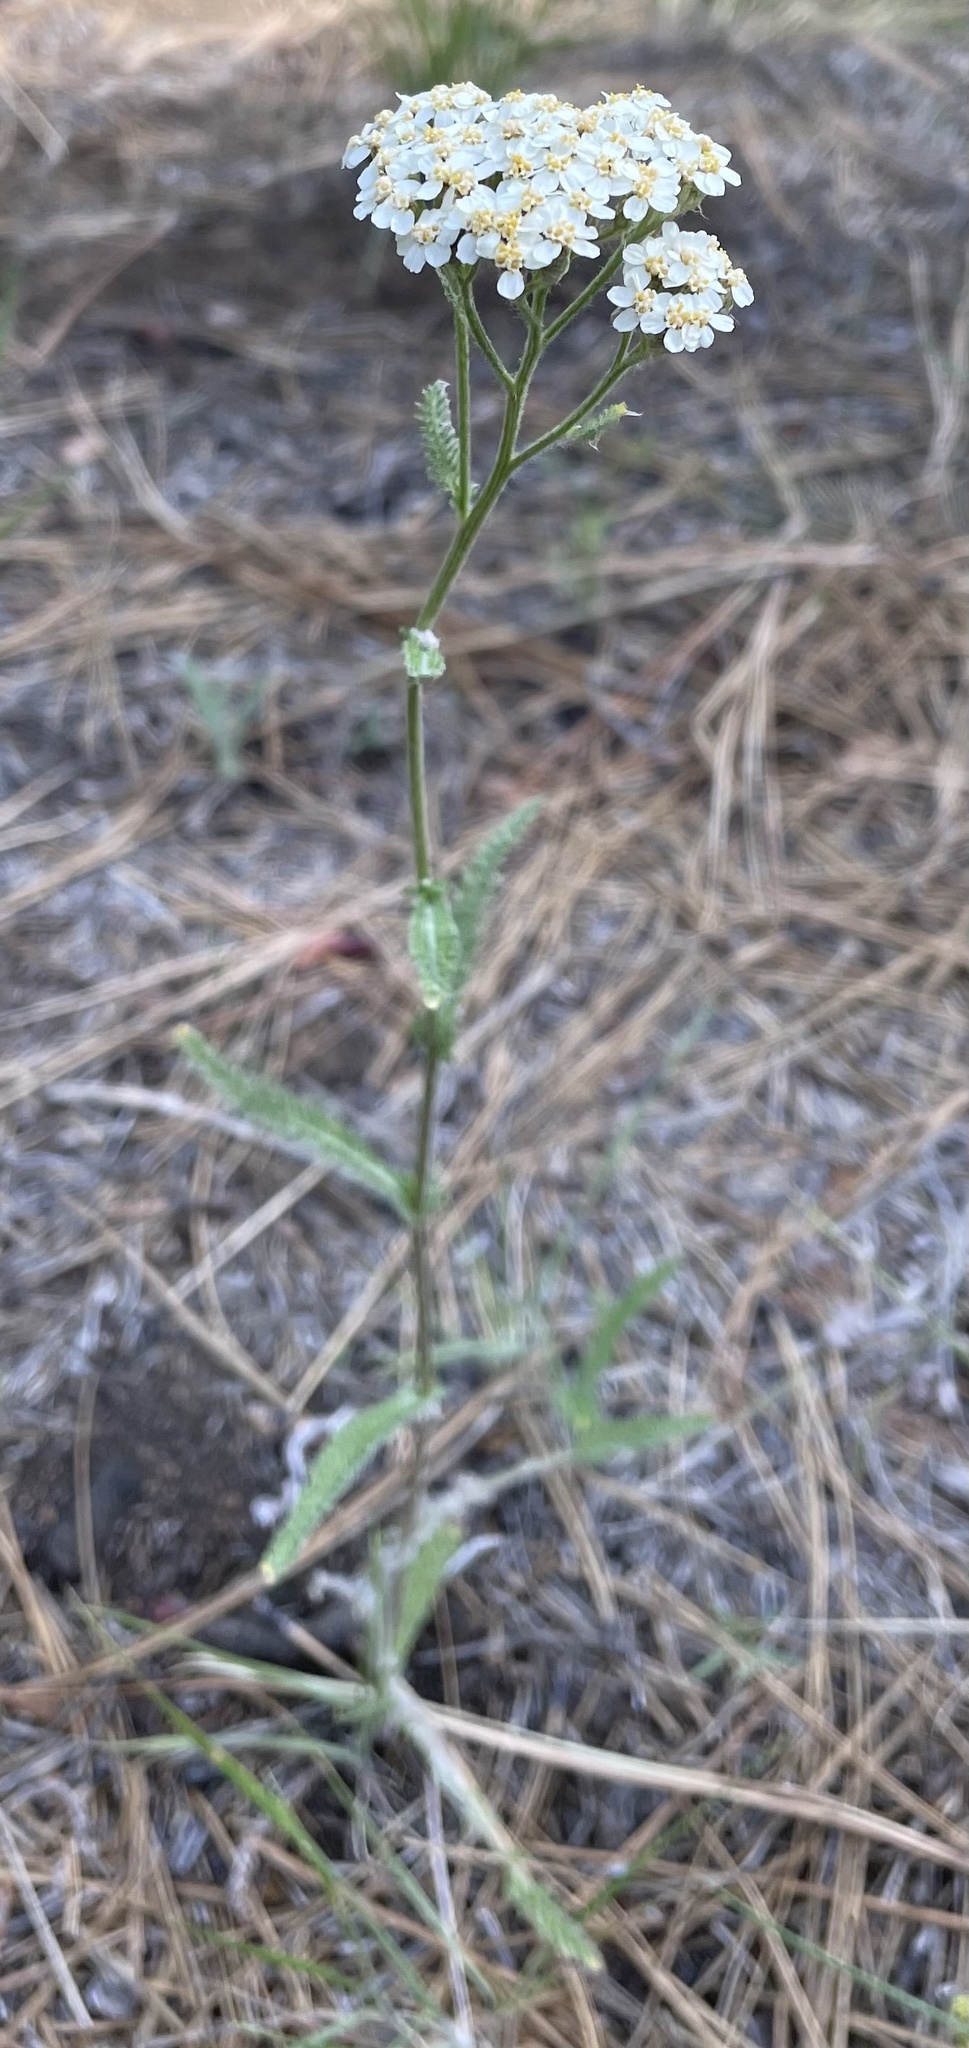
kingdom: Plantae
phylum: Tracheophyta
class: Magnoliopsida
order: Asterales
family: Asteraceae
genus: Achillea
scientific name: Achillea millefolium
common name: Yarrow
